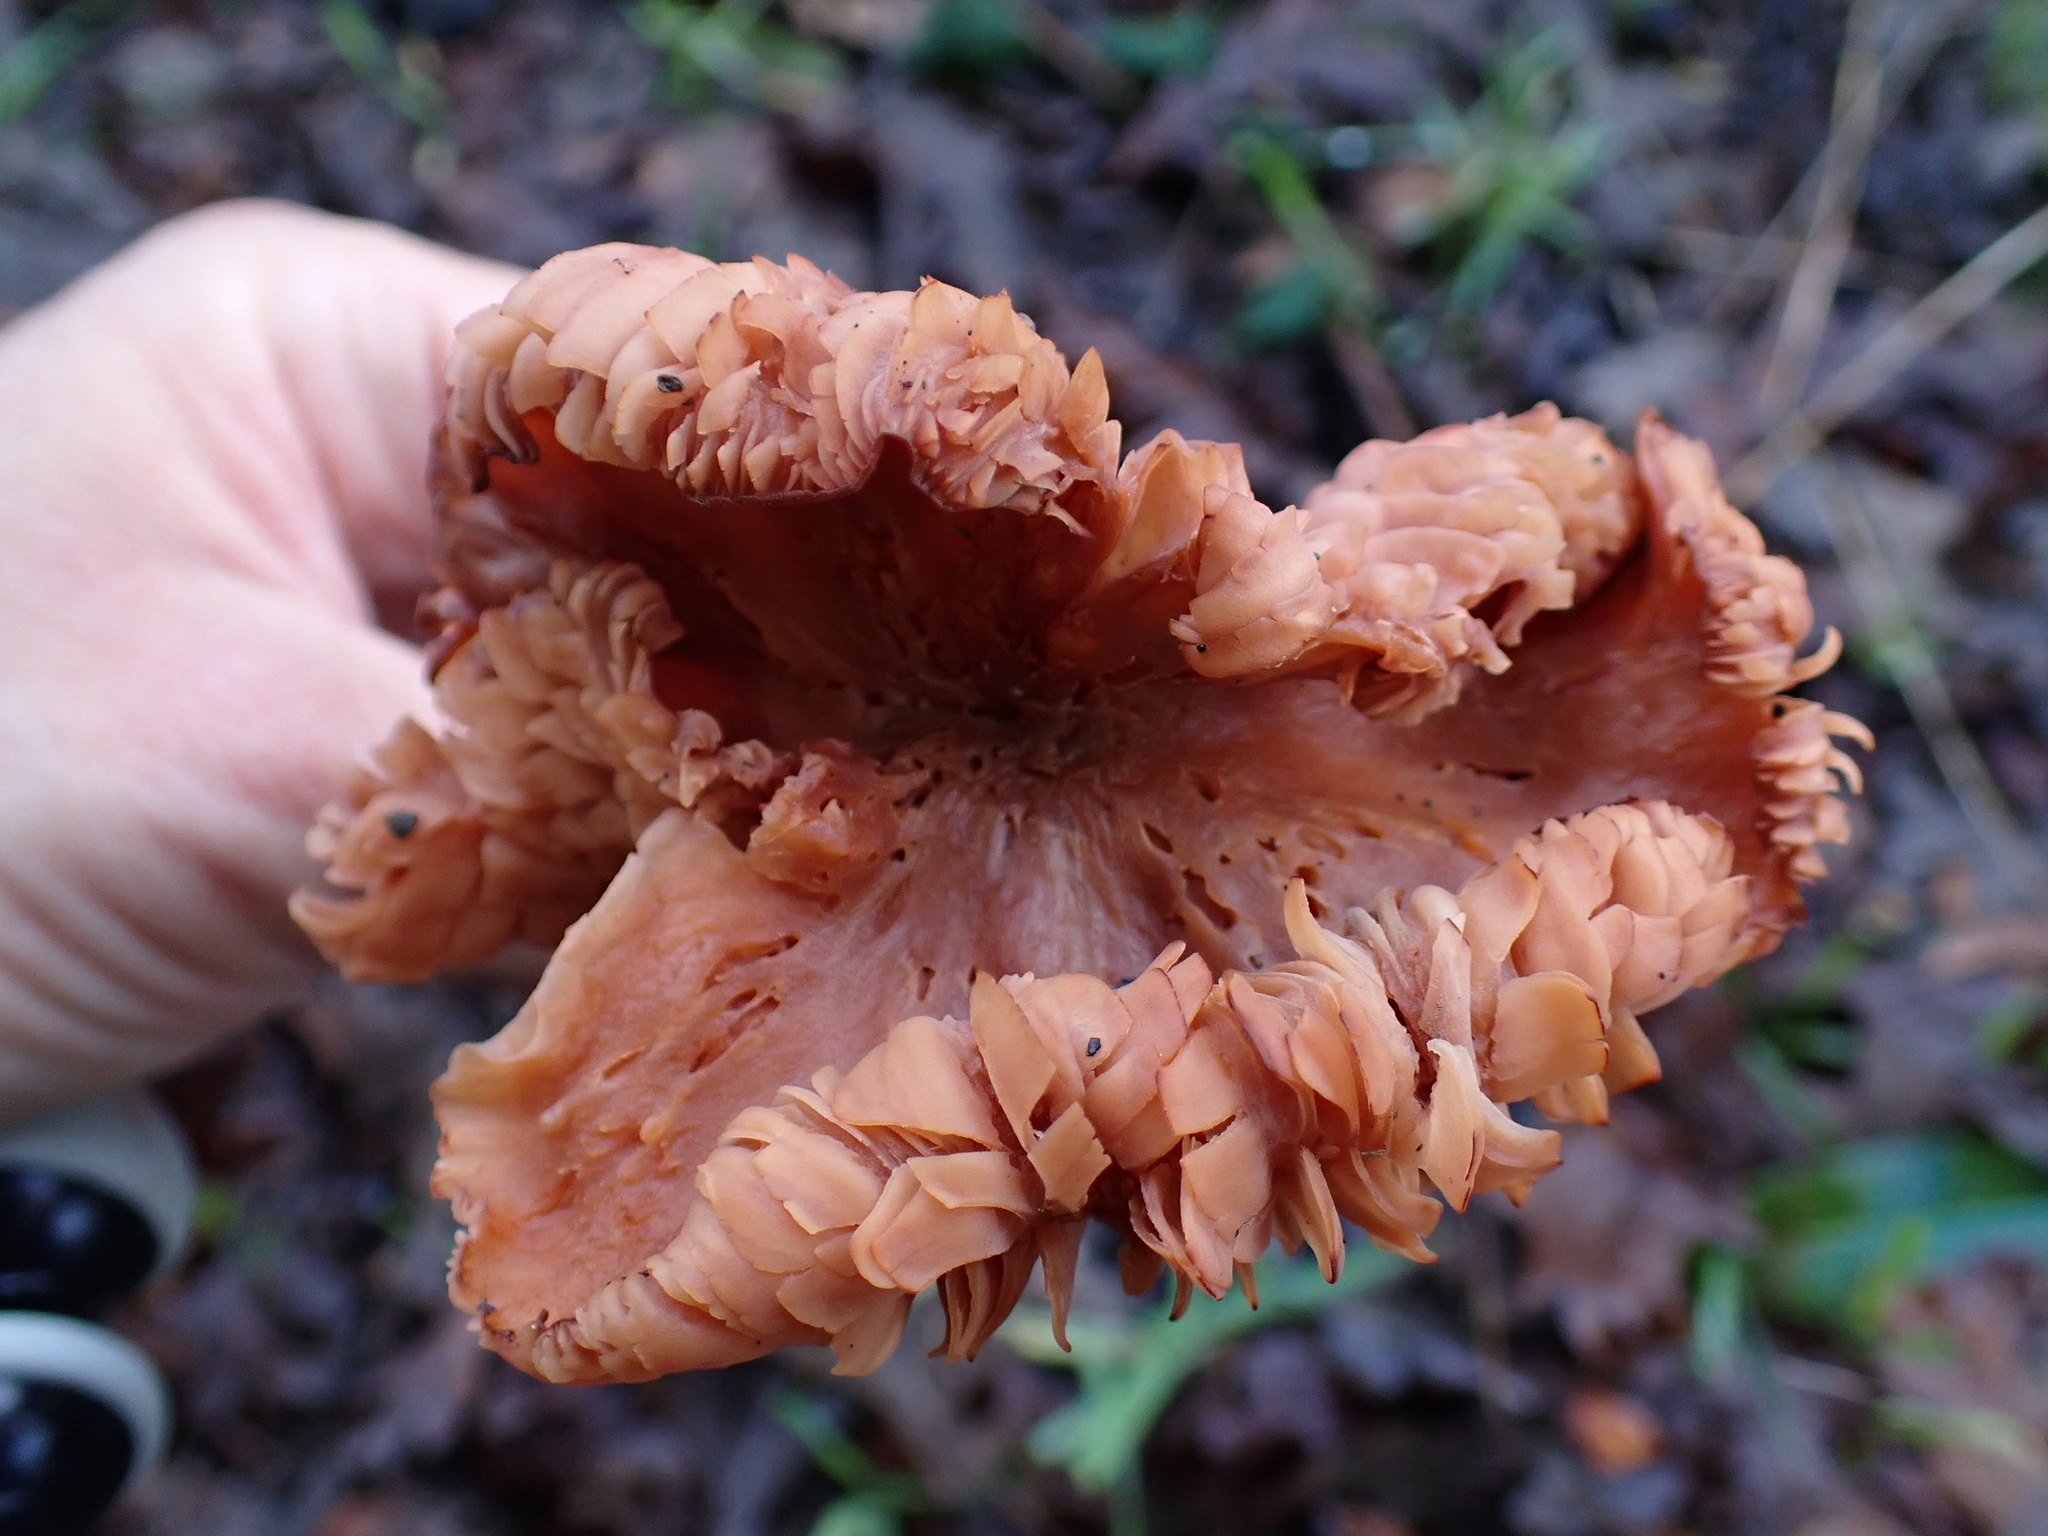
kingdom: Fungi
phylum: Basidiomycota
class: Agaricomycetes
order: Agaricales
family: Hydnangiaceae
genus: Laccaria
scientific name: Laccaria amethysteo-occidentalis
